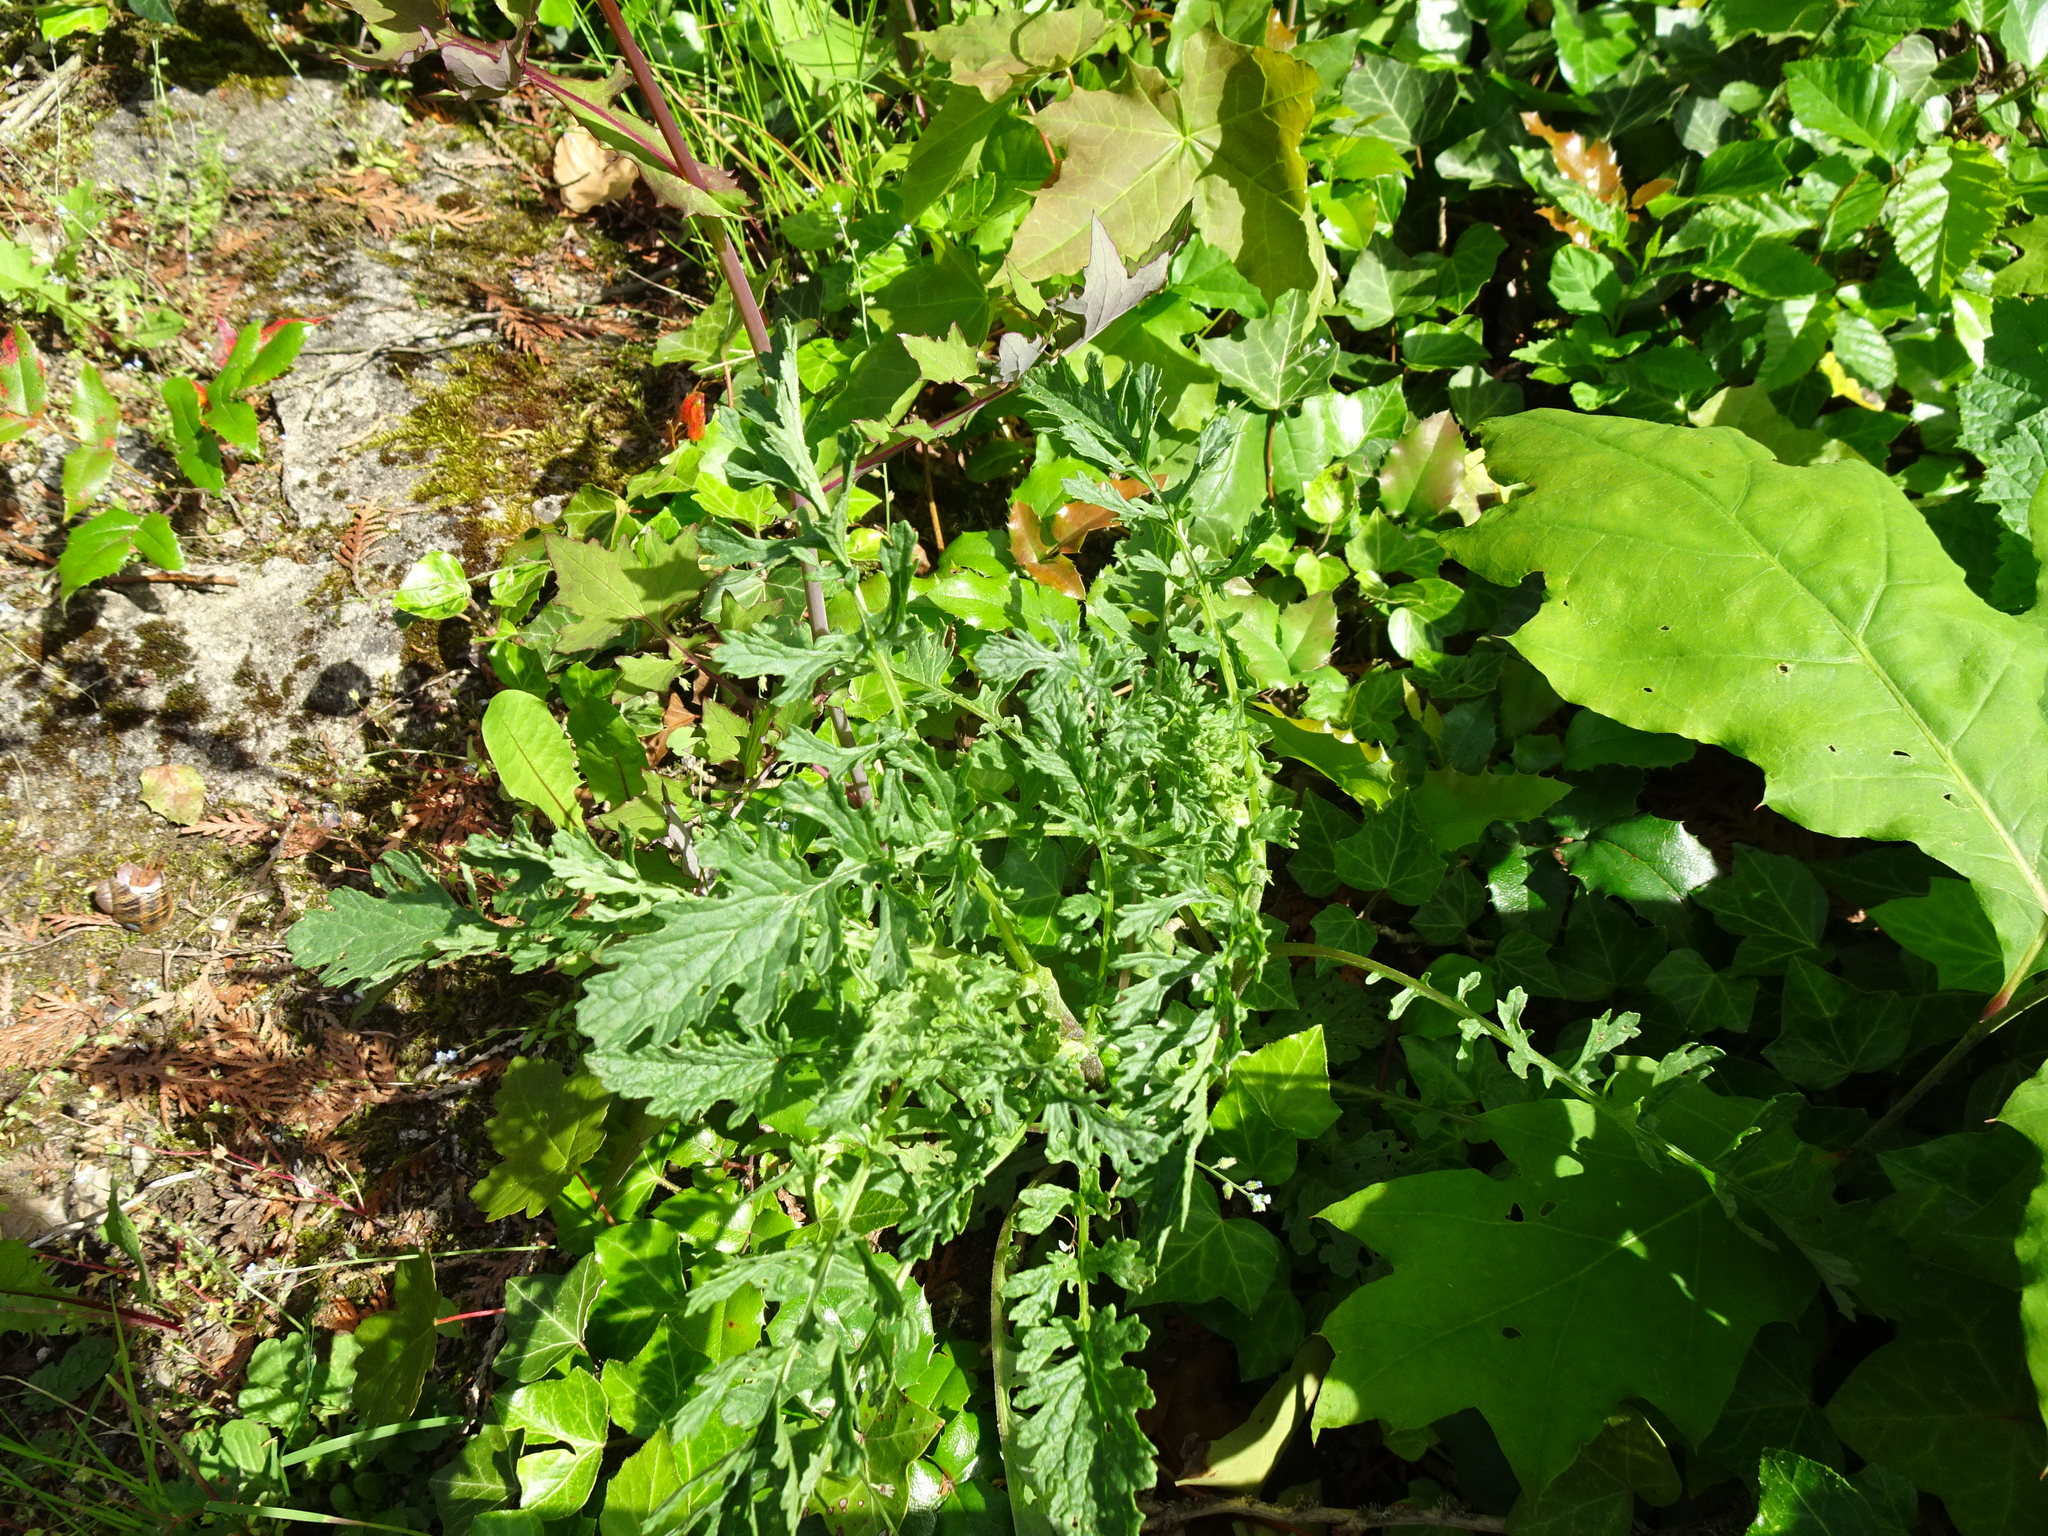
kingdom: Plantae
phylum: Tracheophyta
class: Magnoliopsida
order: Asterales
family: Asteraceae
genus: Jacobaea
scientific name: Jacobaea vulgaris
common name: Stinking willie
